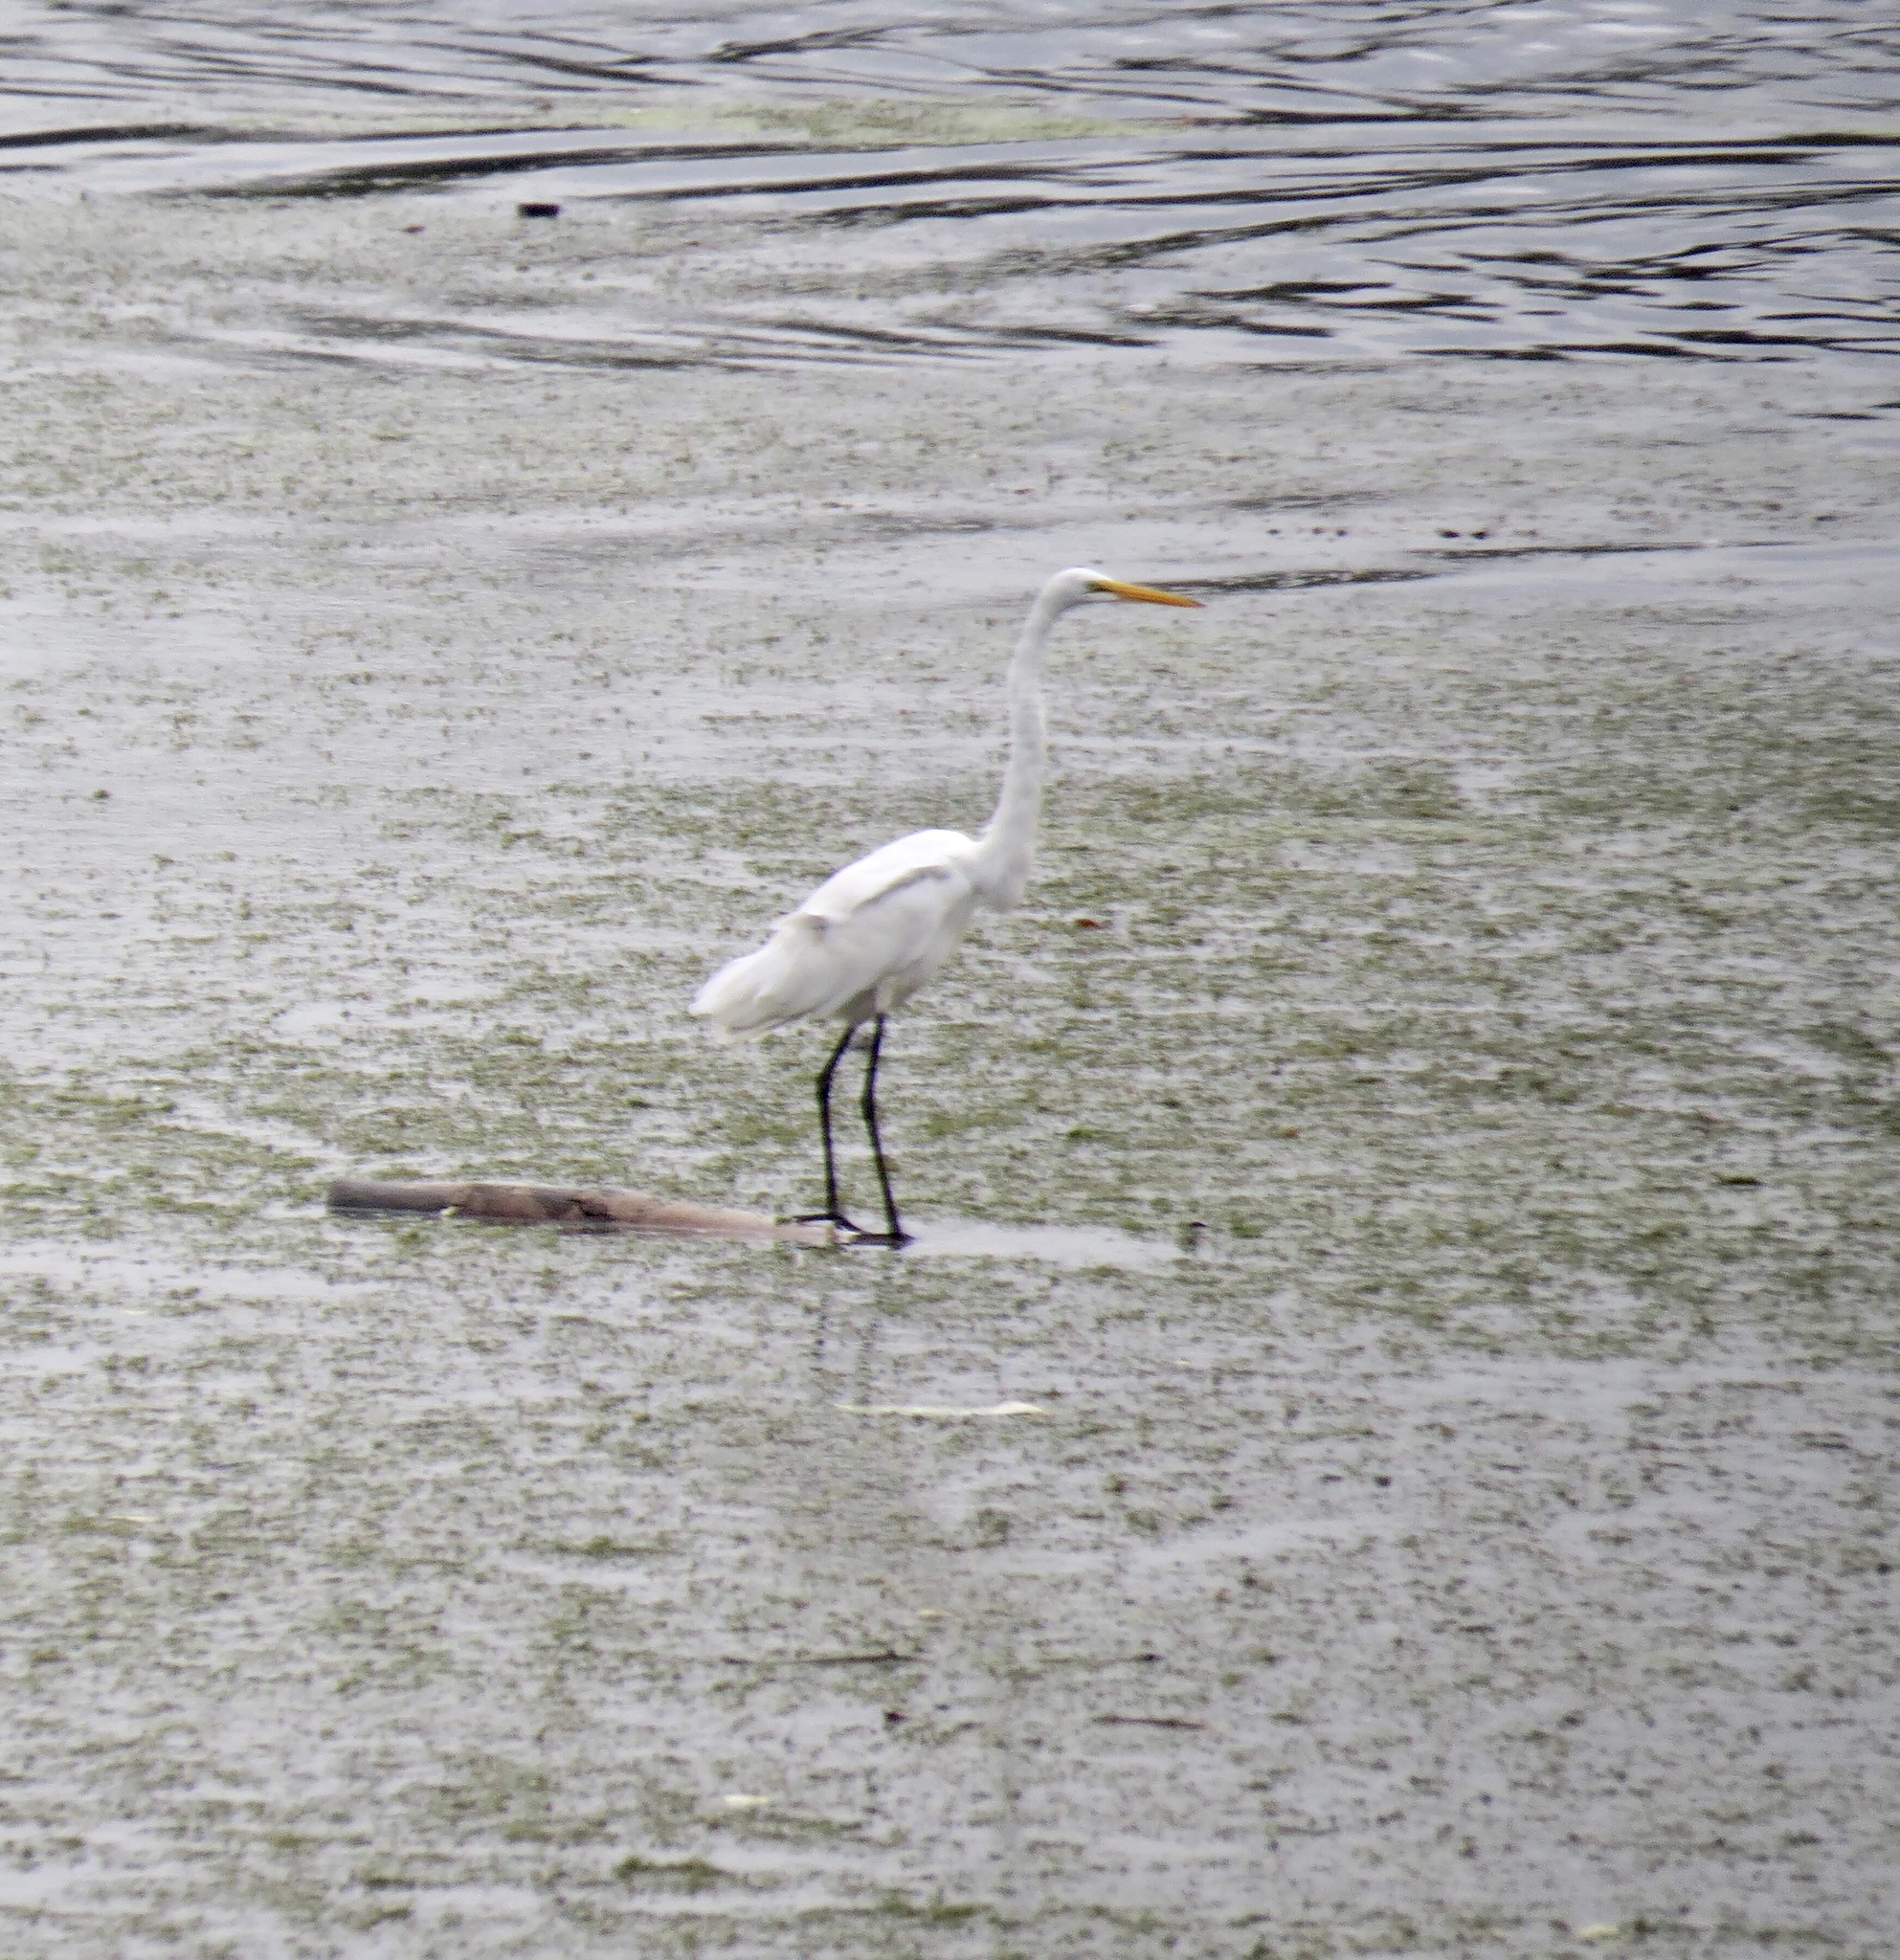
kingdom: Animalia
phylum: Chordata
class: Aves
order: Pelecaniformes
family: Ardeidae
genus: Ardea
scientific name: Ardea alba
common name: Great egret
